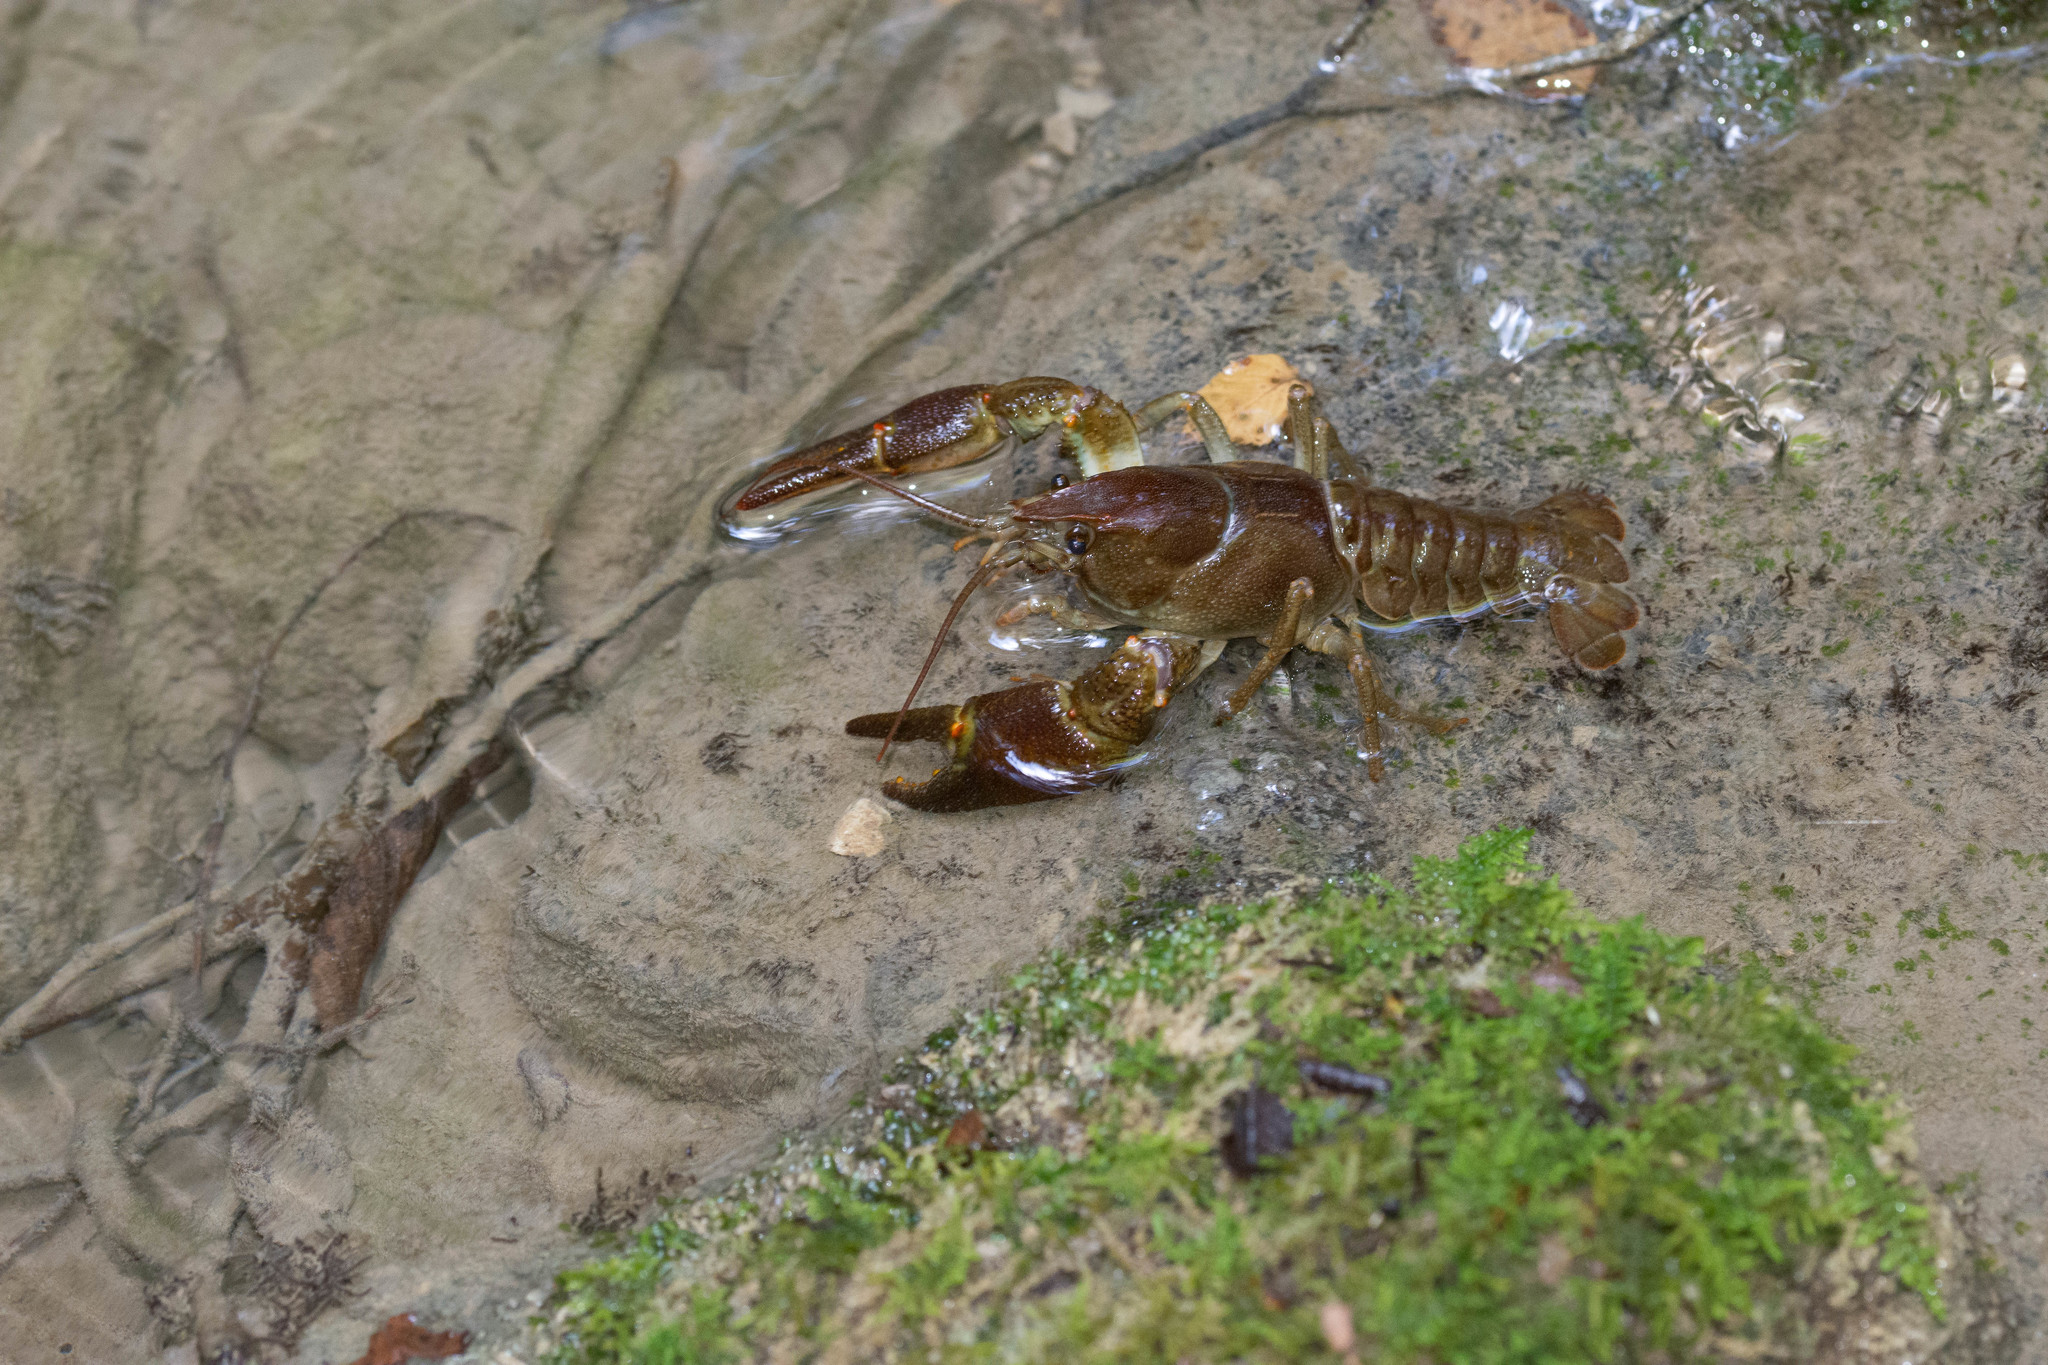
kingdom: Animalia
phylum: Arthropoda
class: Malacostraca
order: Decapoda
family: Astacidae
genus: Austropotamobius
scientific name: Austropotamobius pallipes
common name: White-clawed crayfish
